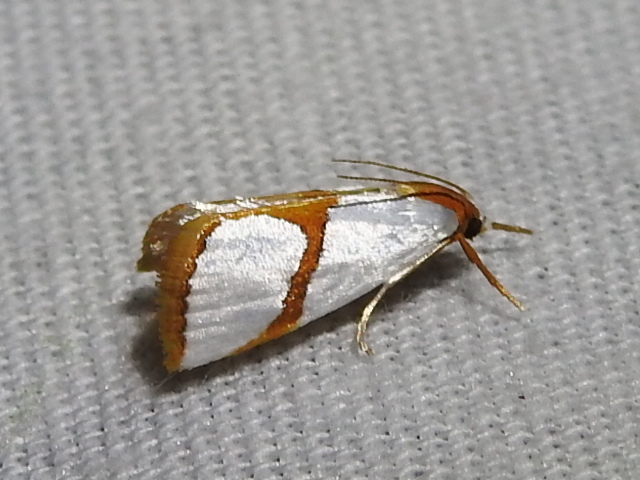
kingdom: Animalia
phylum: Arthropoda
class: Insecta
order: Lepidoptera
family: Crambidae
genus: Argyria
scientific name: Argyria auratella
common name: Curve-lined argyria moth
